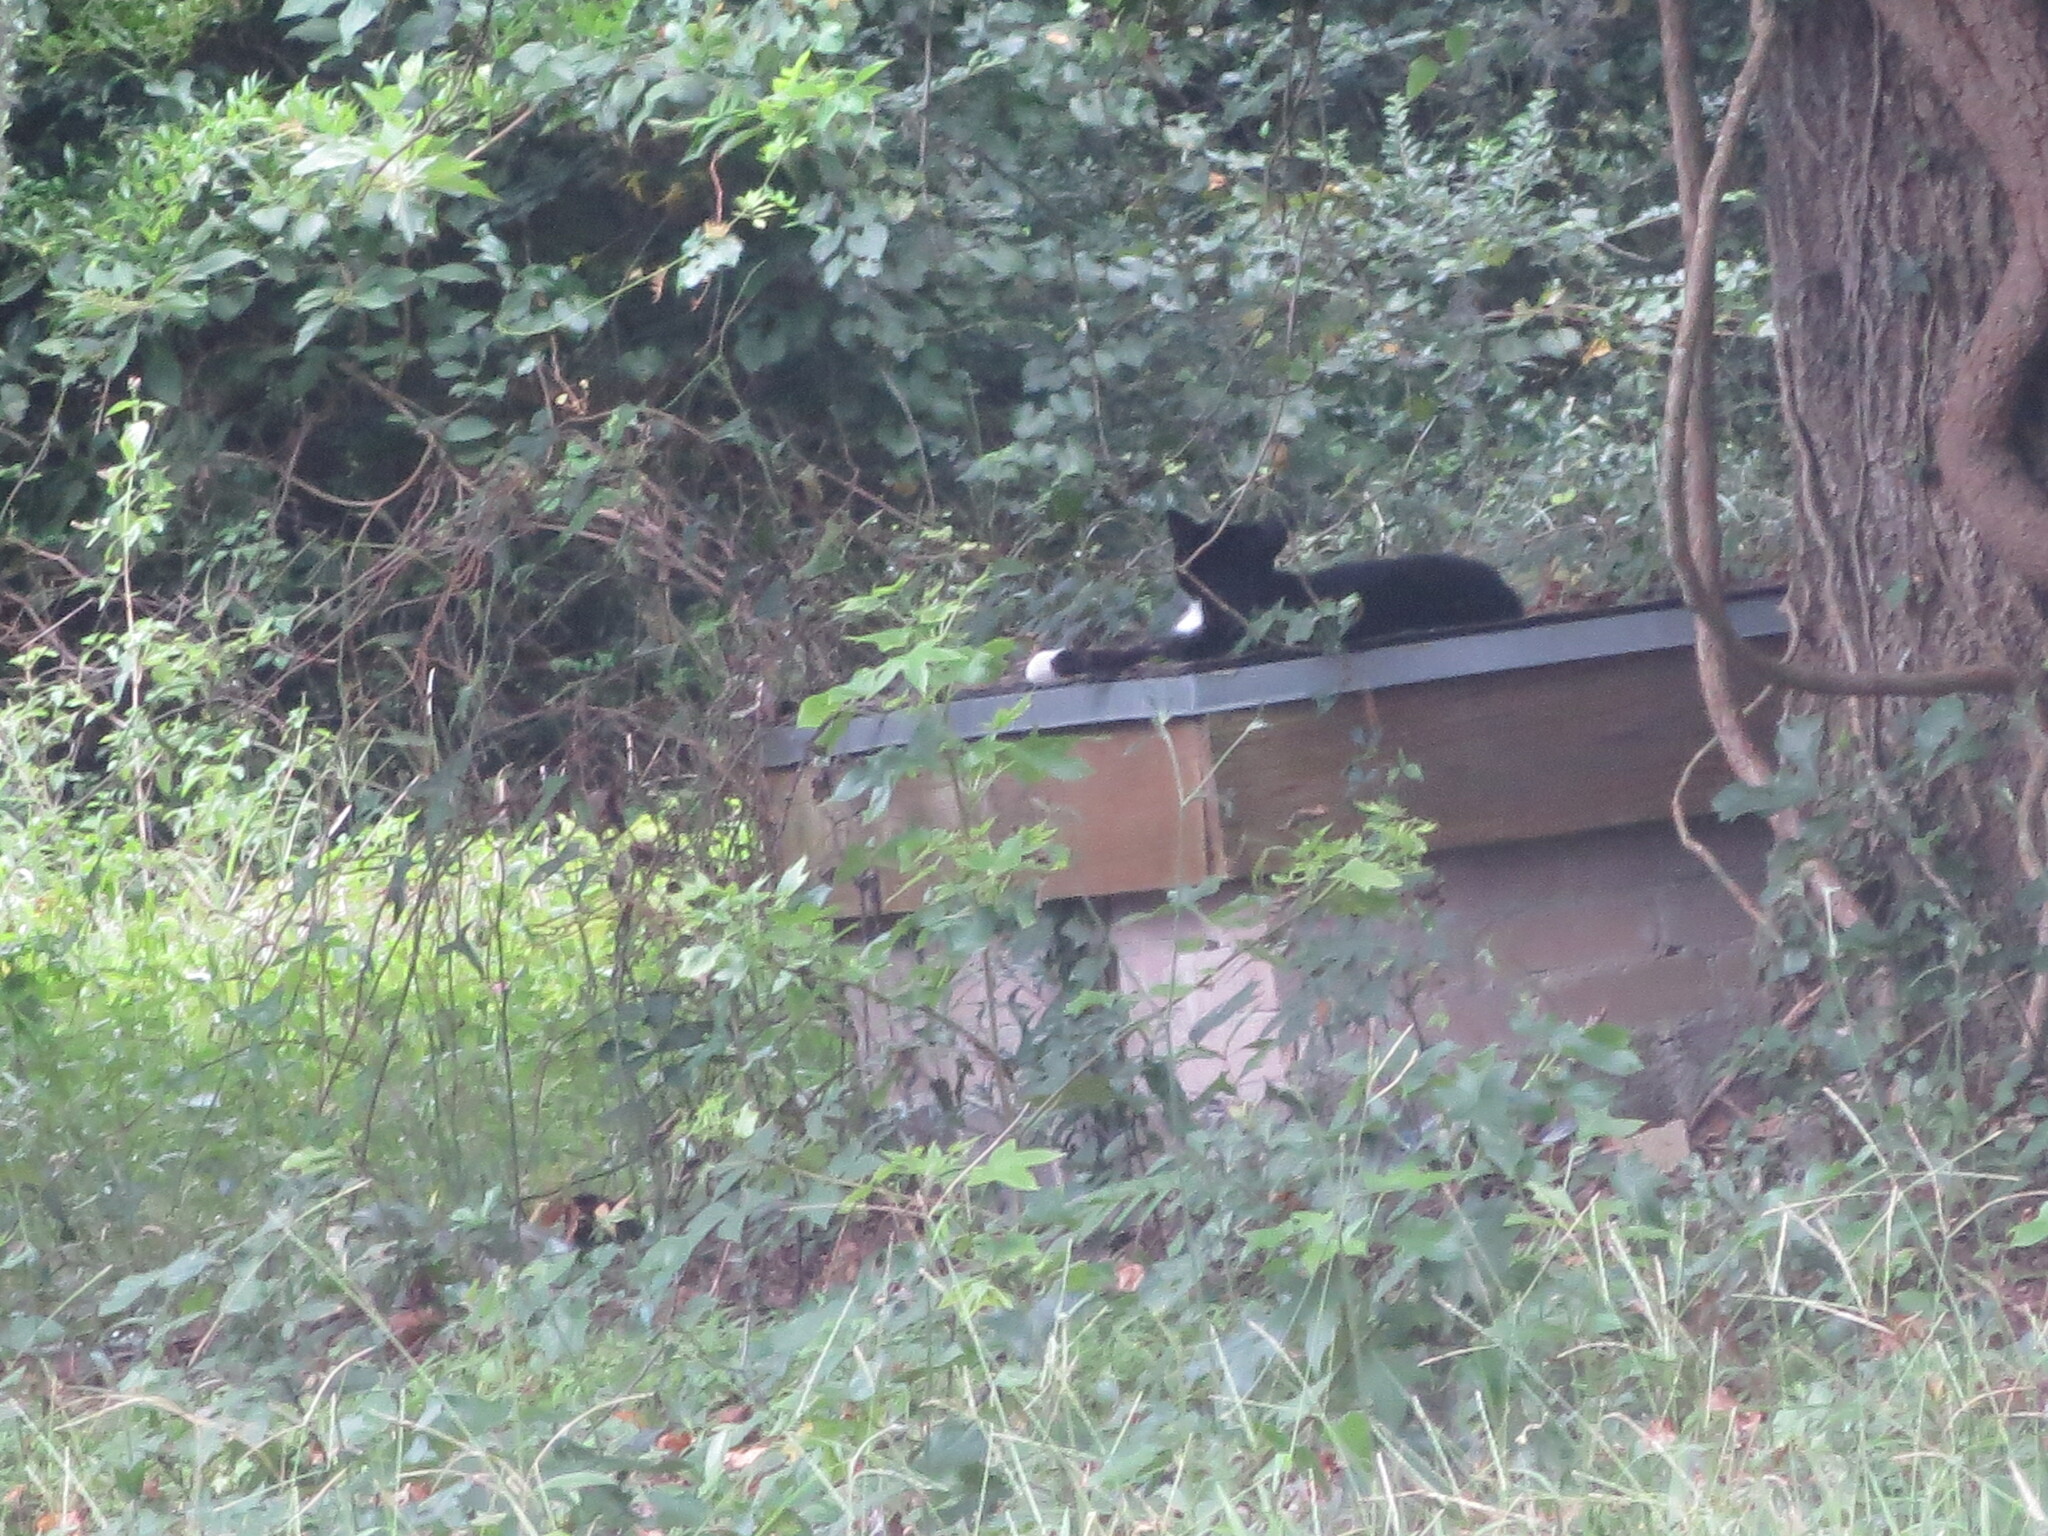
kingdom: Animalia
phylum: Chordata
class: Mammalia
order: Carnivora
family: Felidae
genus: Felis
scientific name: Felis catus
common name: Domestic cat
